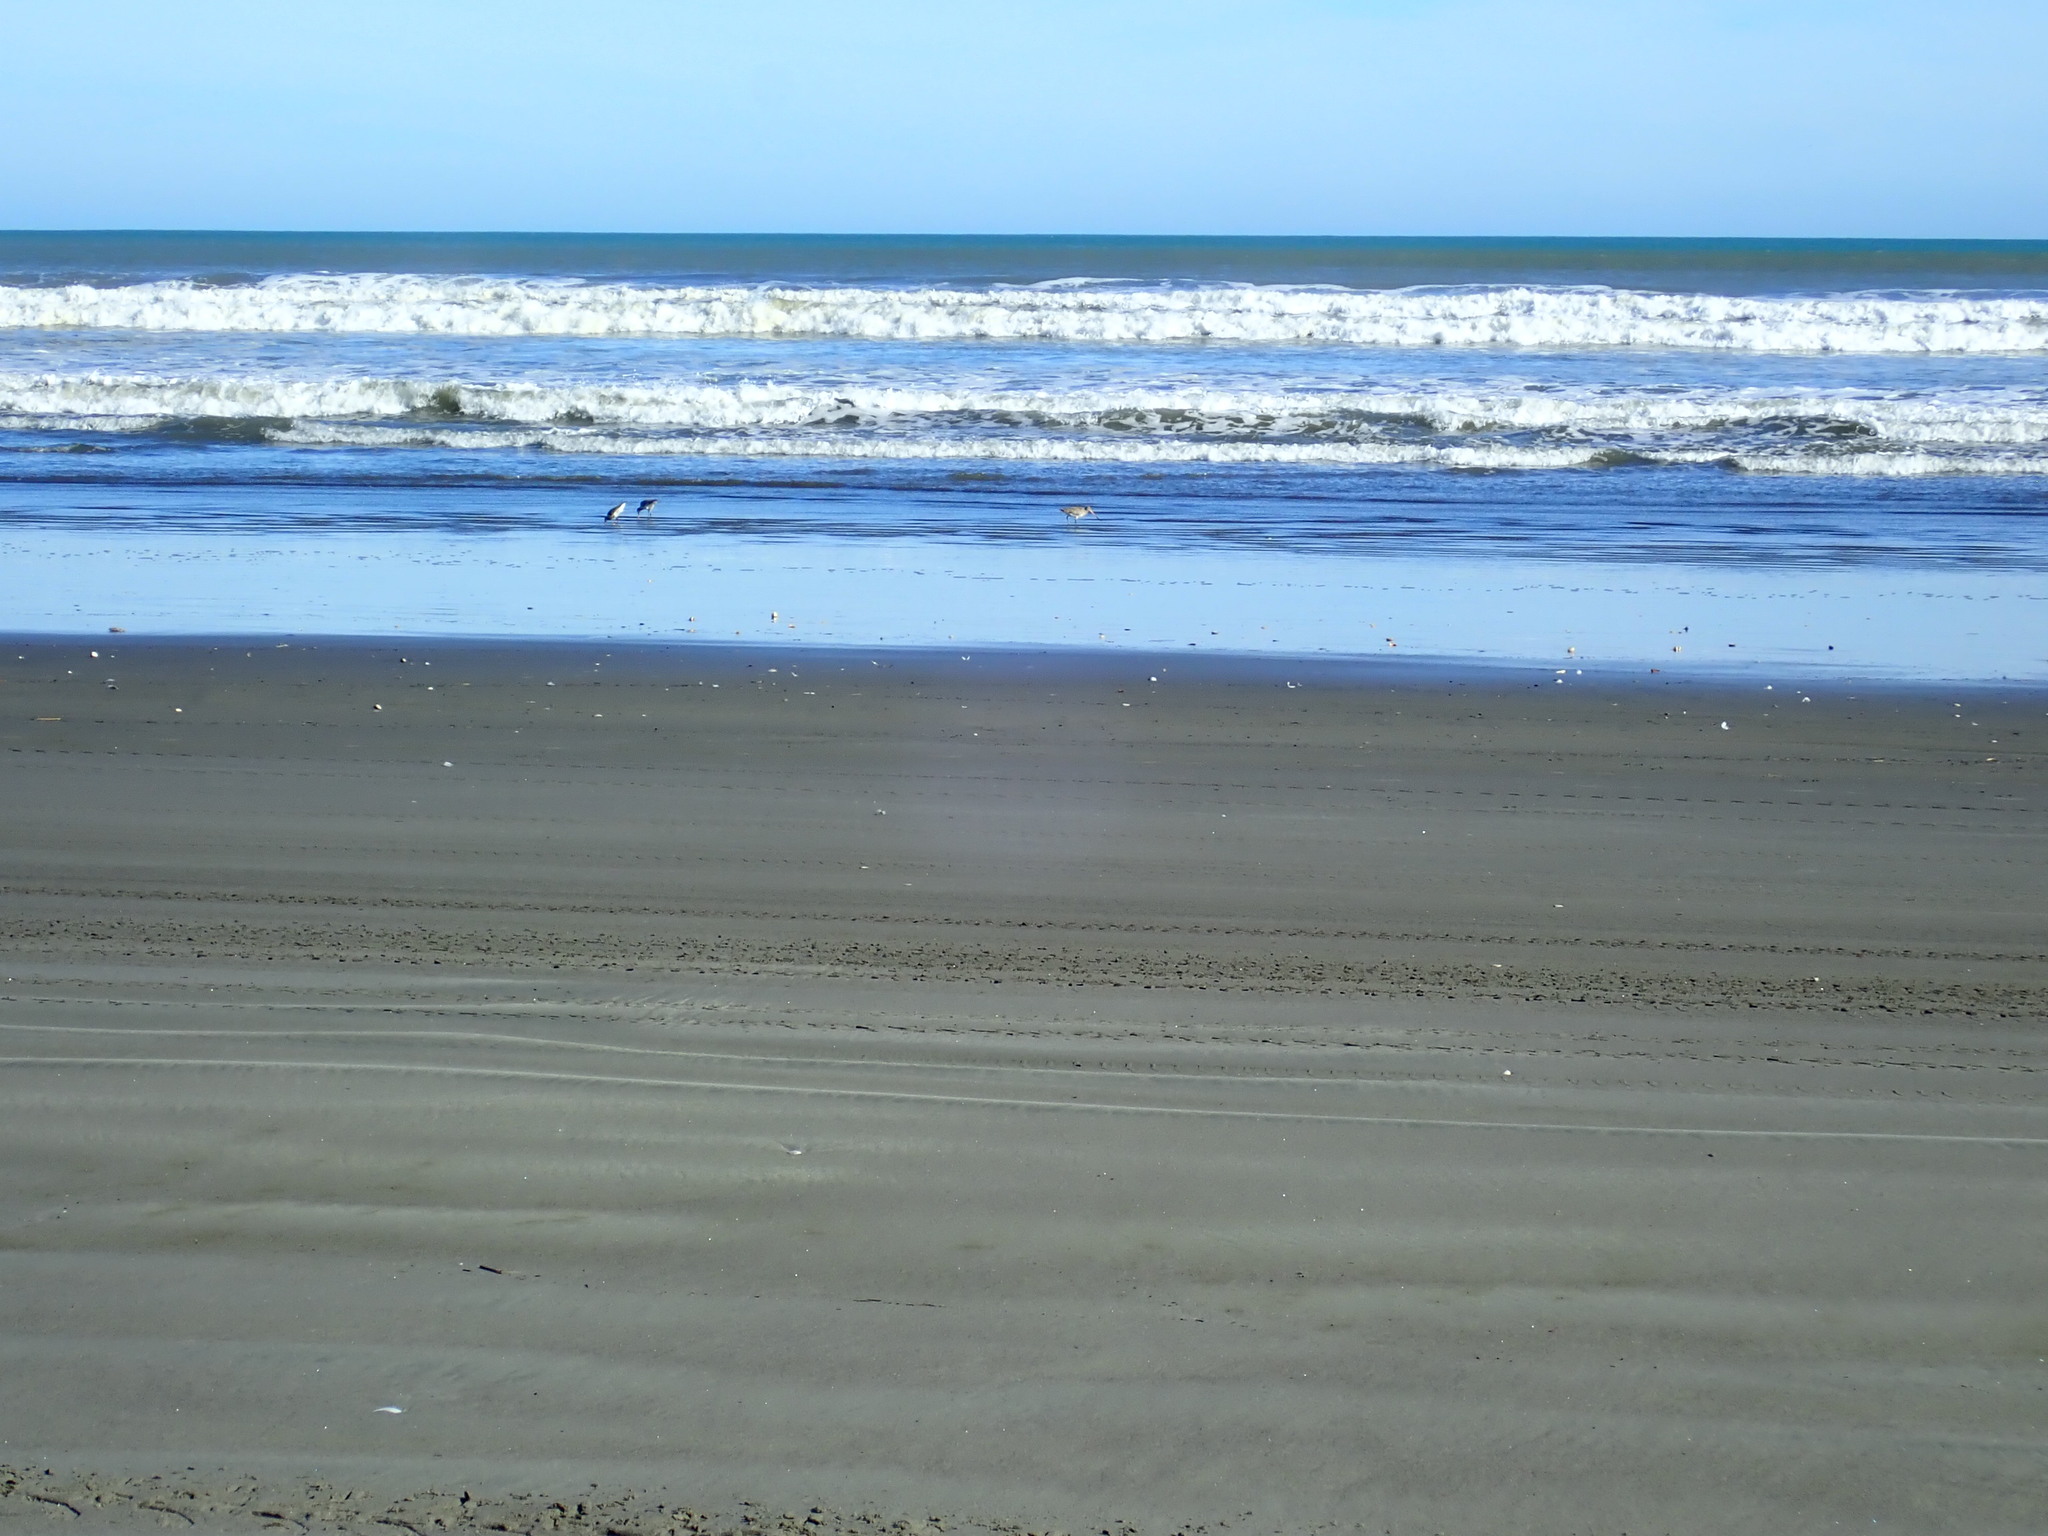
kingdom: Animalia
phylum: Chordata
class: Aves
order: Charadriiformes
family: Scolopacidae
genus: Limosa
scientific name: Limosa lapponica
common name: Bar-tailed godwit
